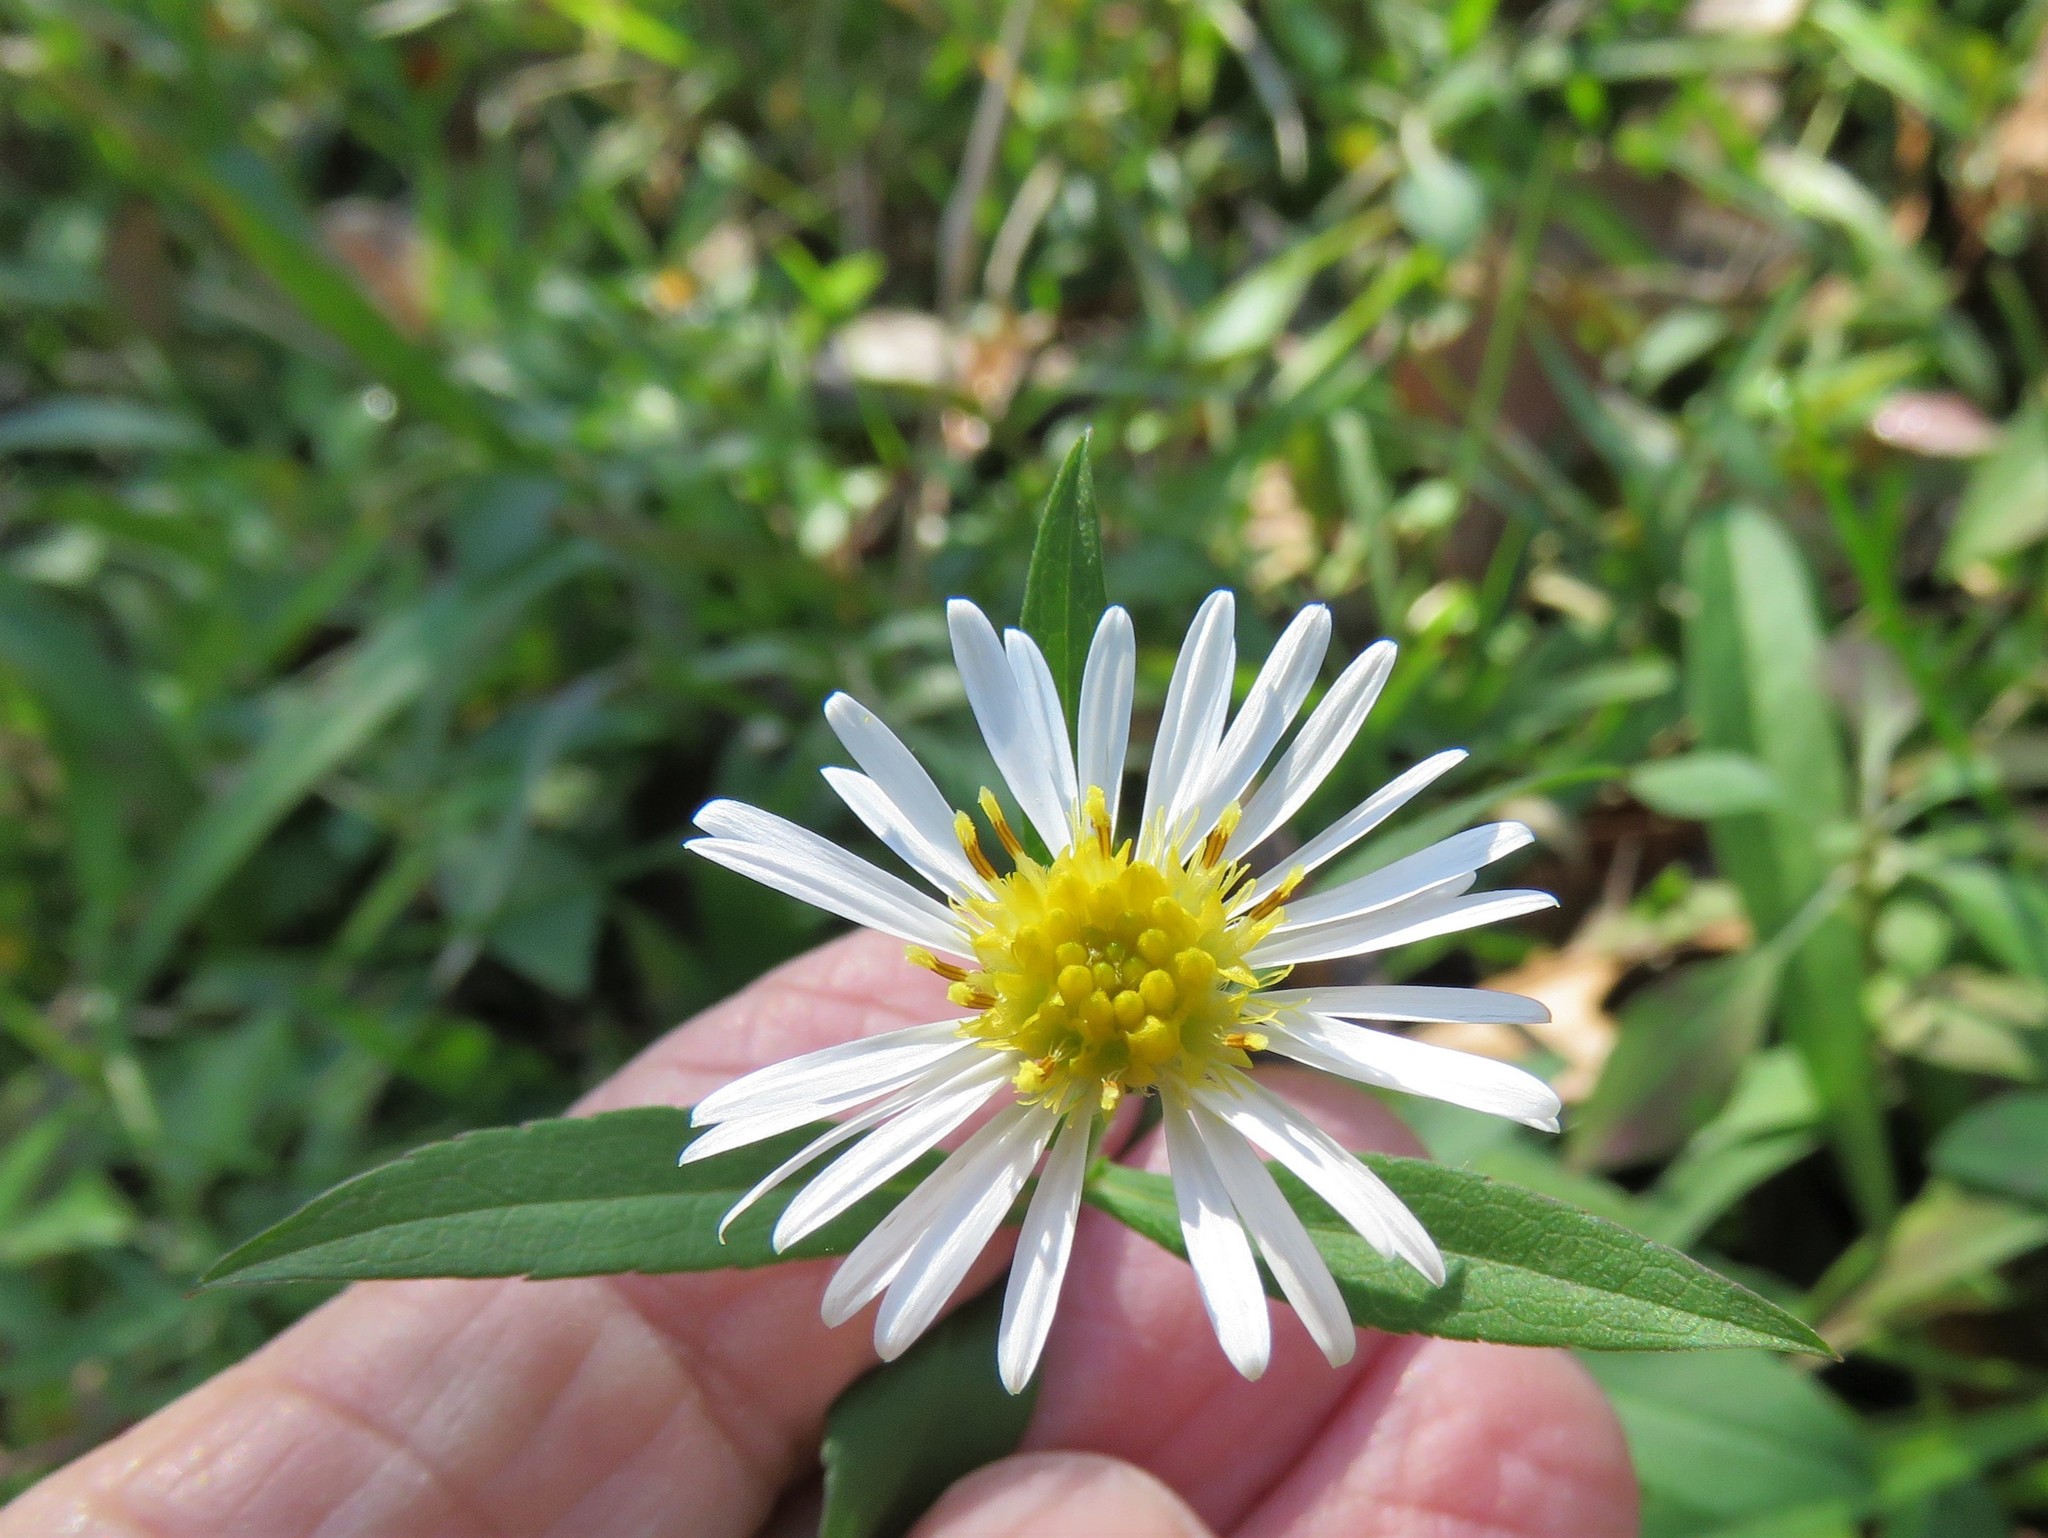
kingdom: Plantae
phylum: Tracheophyta
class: Magnoliopsida
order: Asterales
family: Asteraceae
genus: Symphyotrichum
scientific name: Symphyotrichum lanceolatum
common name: Panicled aster
